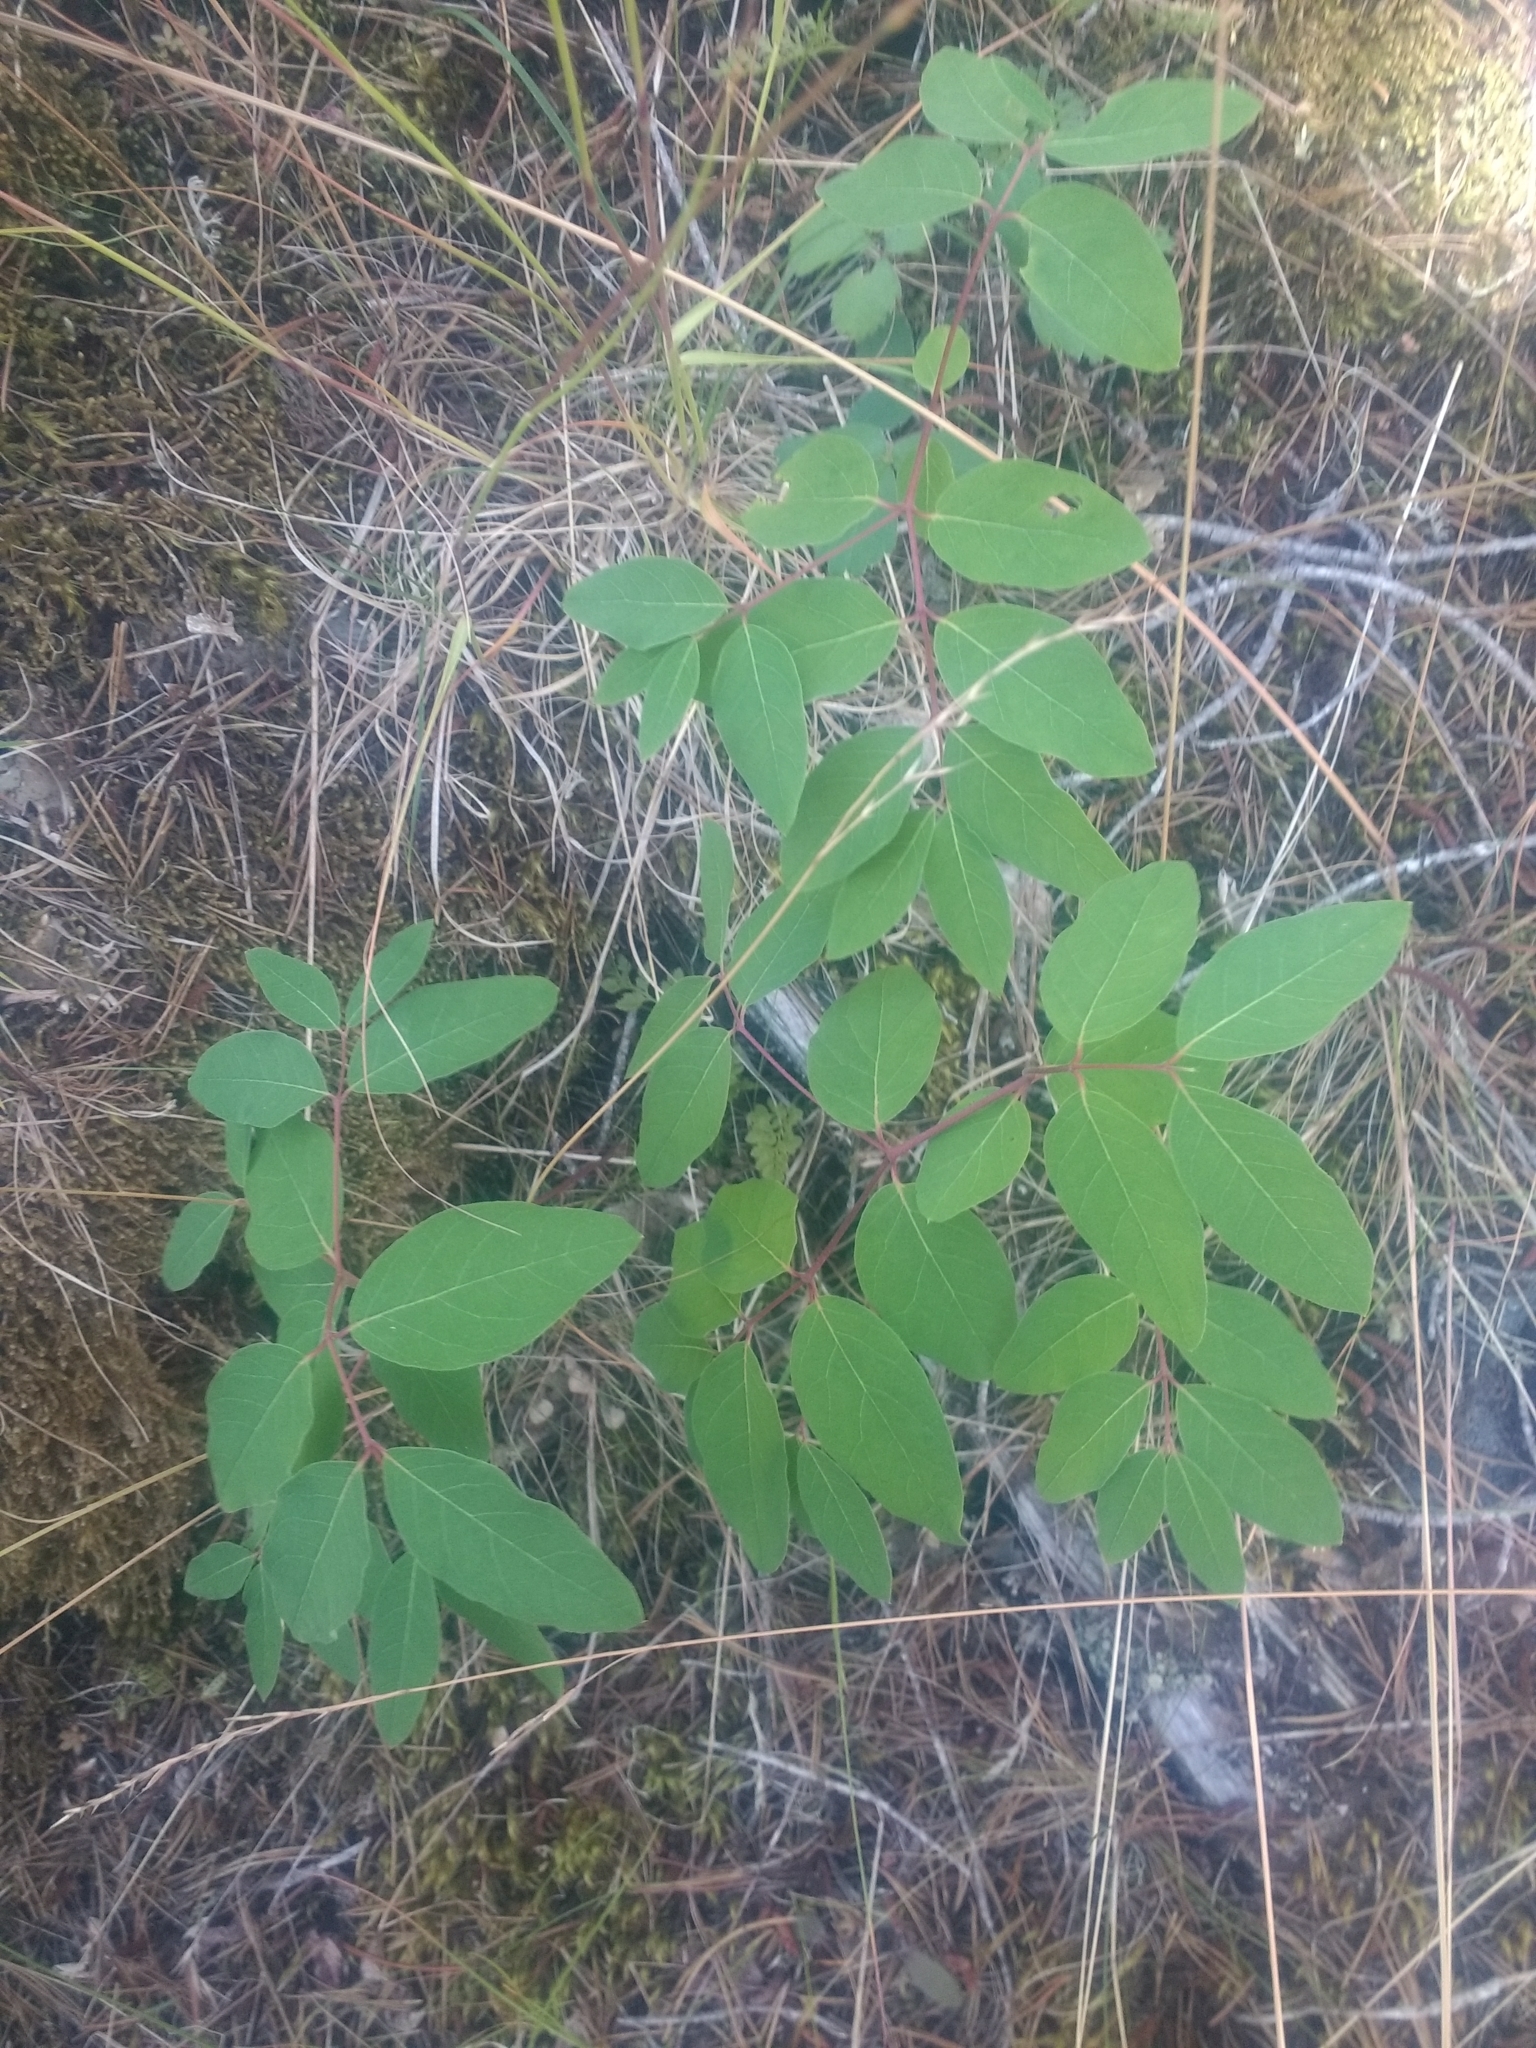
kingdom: Plantae
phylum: Tracheophyta
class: Magnoliopsida
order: Gentianales
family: Apocynaceae
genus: Apocynum
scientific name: Apocynum androsaemifolium
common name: Spreading dogbane
